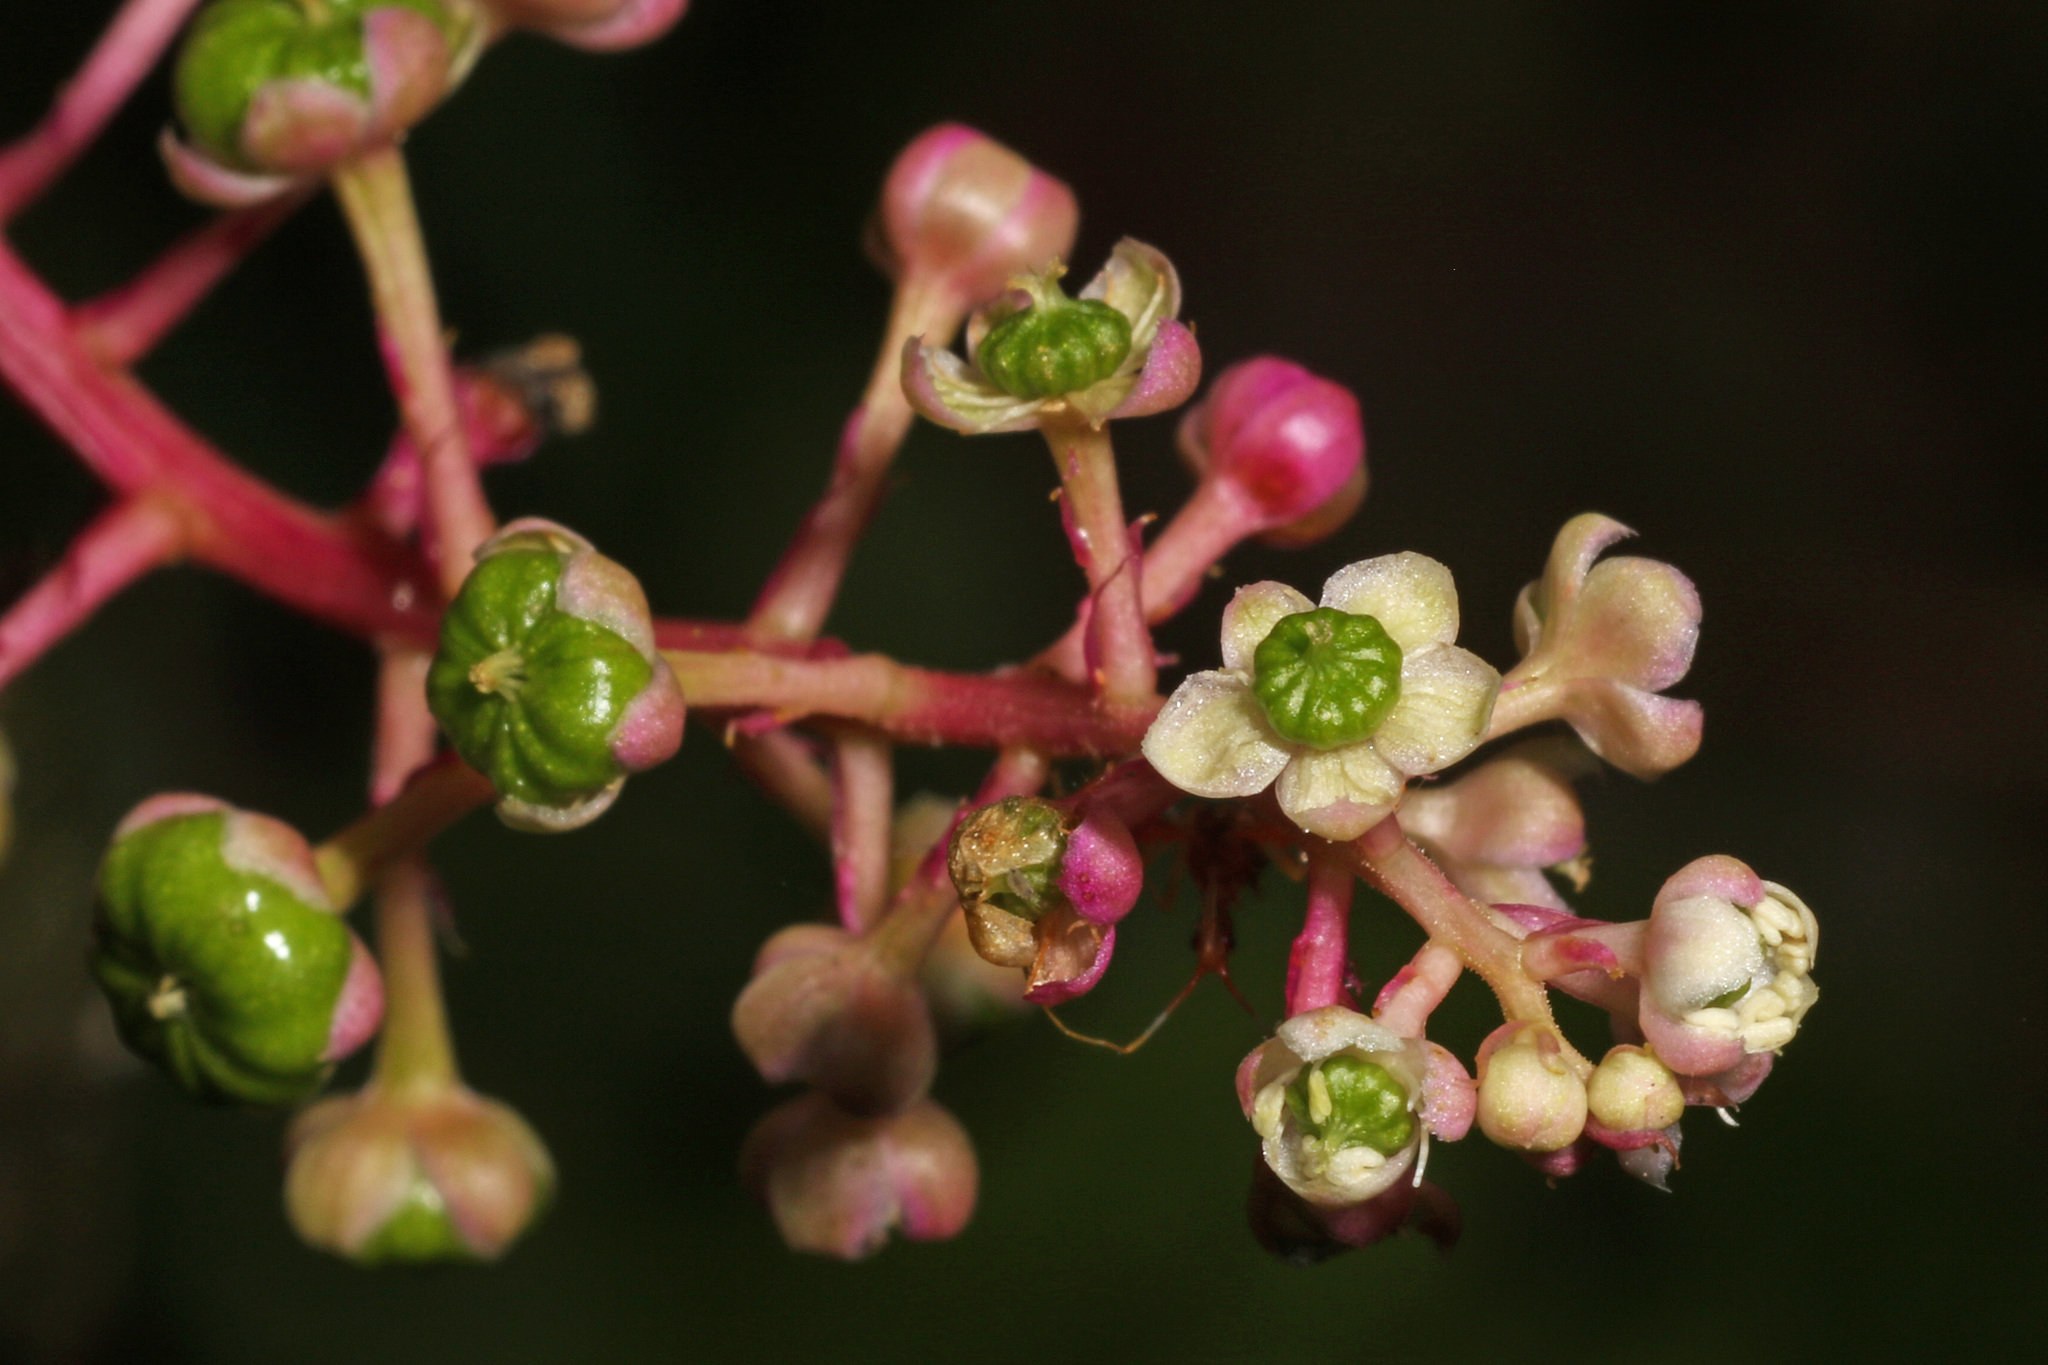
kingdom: Plantae
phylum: Tracheophyta
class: Magnoliopsida
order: Caryophyllales
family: Phytolaccaceae
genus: Phytolacca
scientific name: Phytolacca americana
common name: American pokeweed
